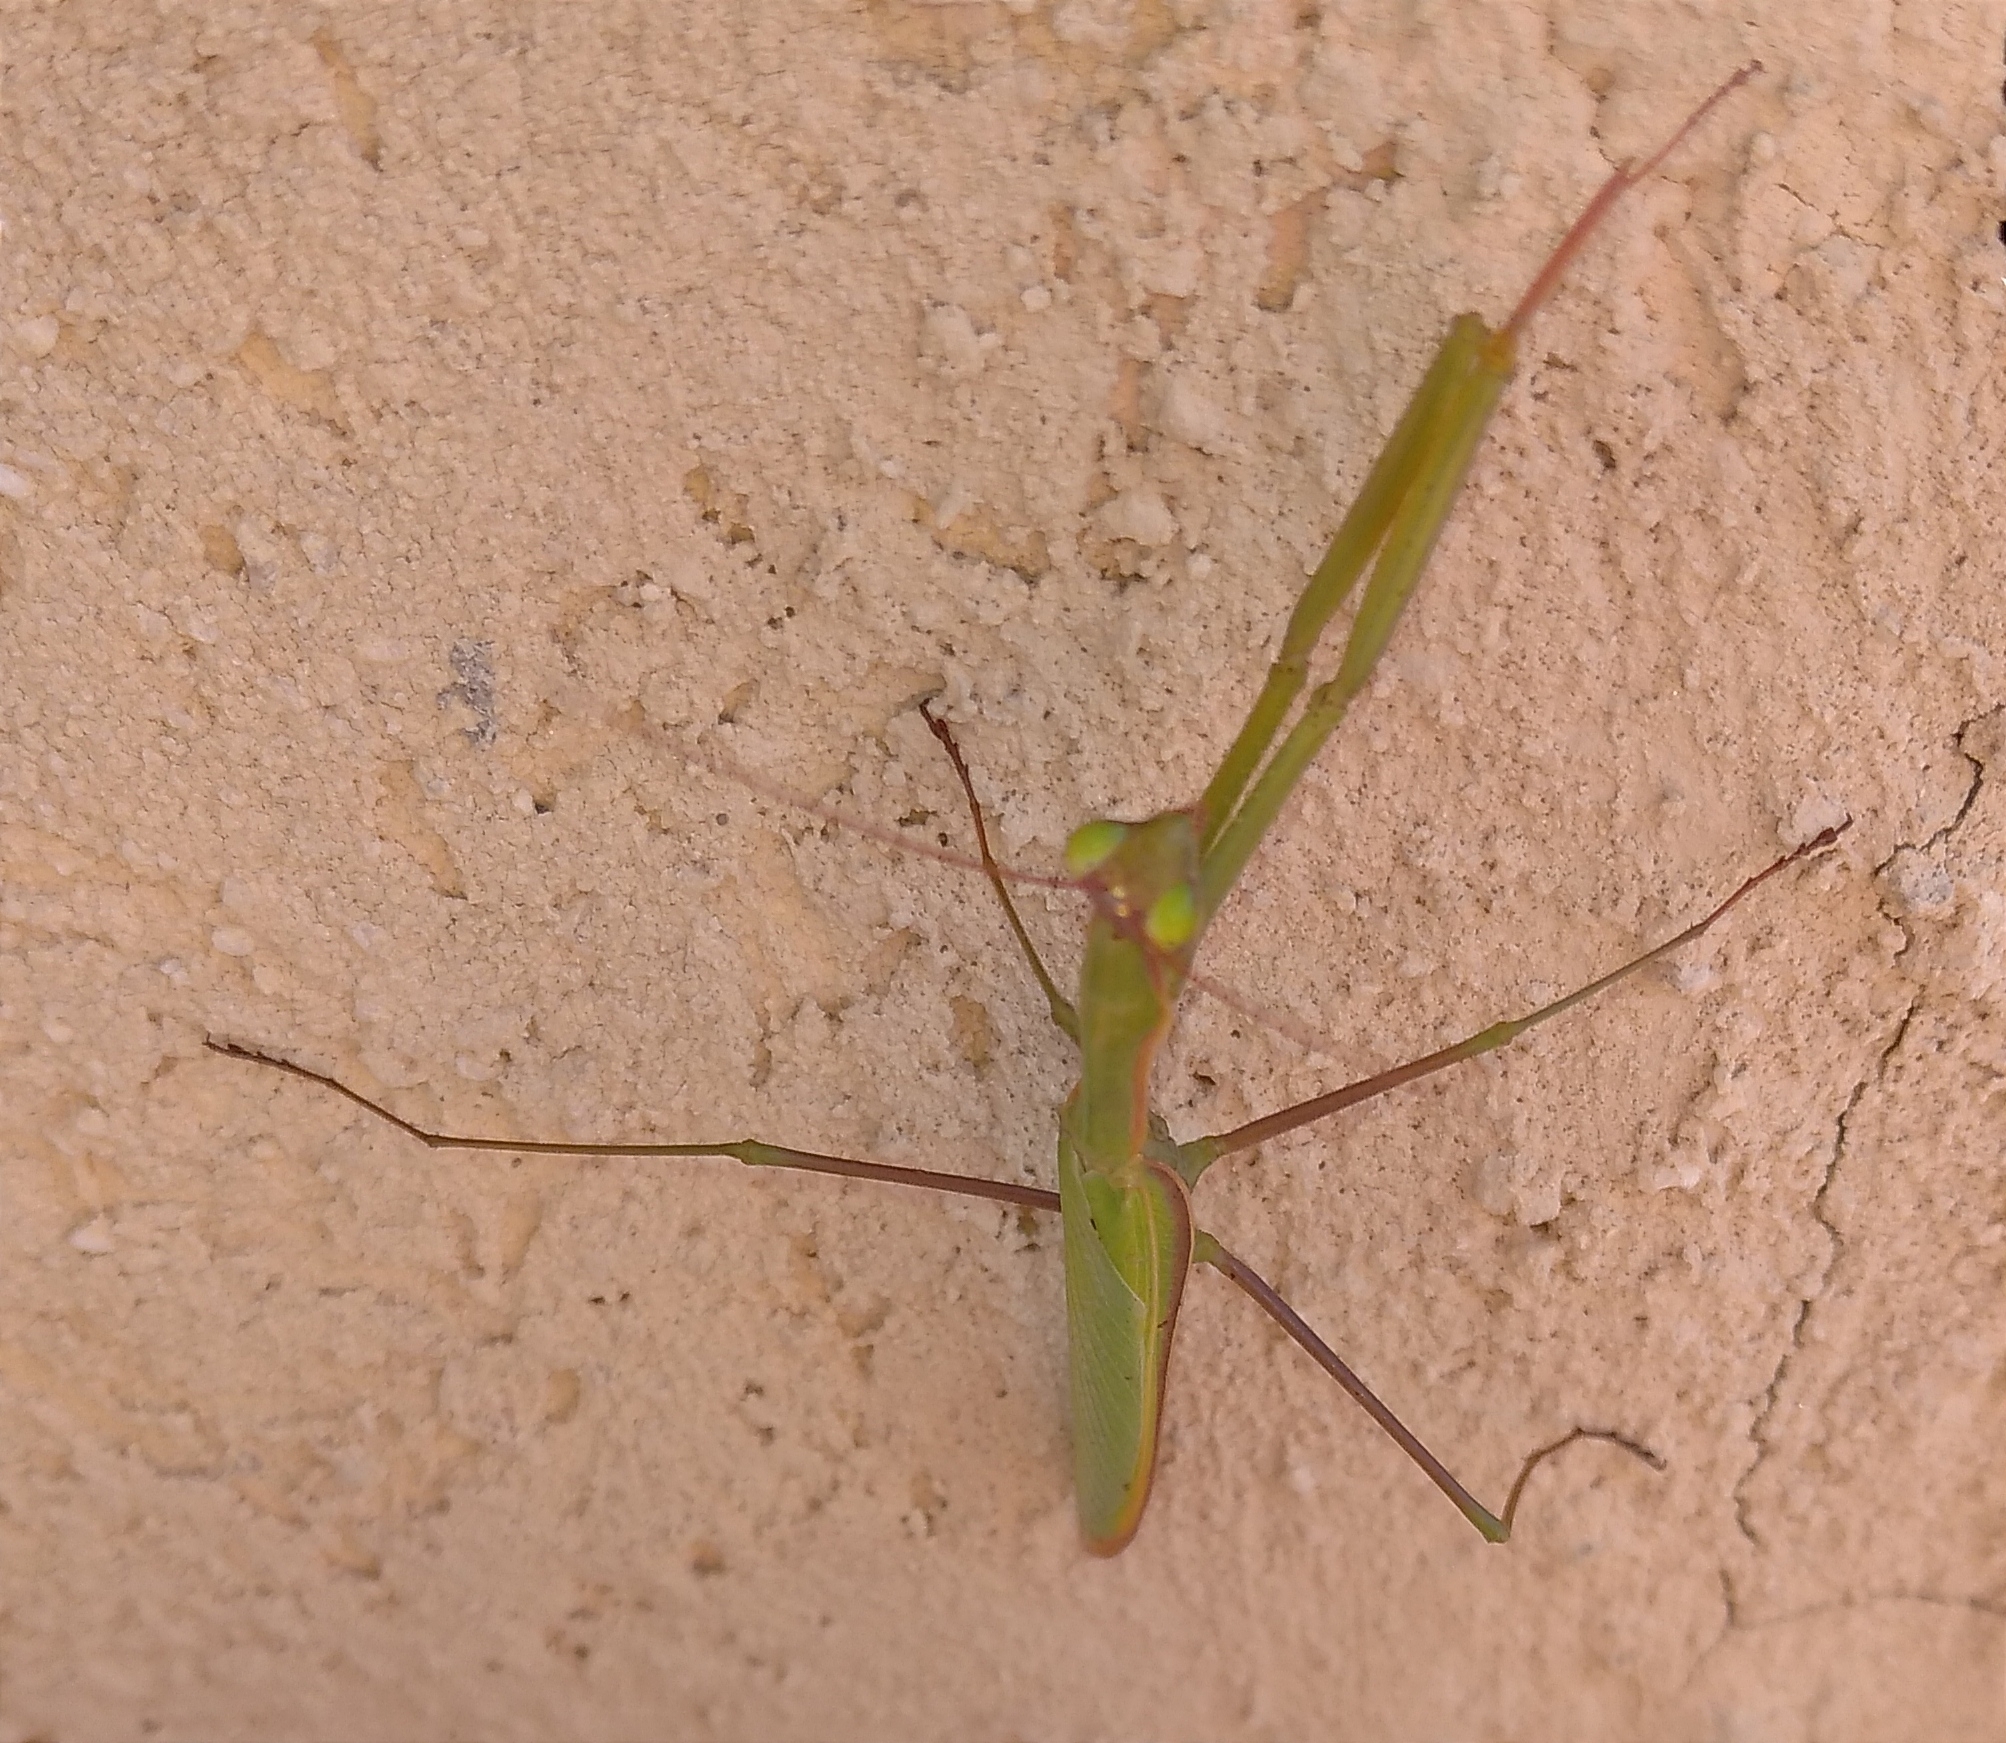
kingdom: Animalia
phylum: Arthropoda
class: Insecta
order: Mantodea
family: Mantidae
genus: Mantis
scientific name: Mantis religiosa
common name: Praying mantis
